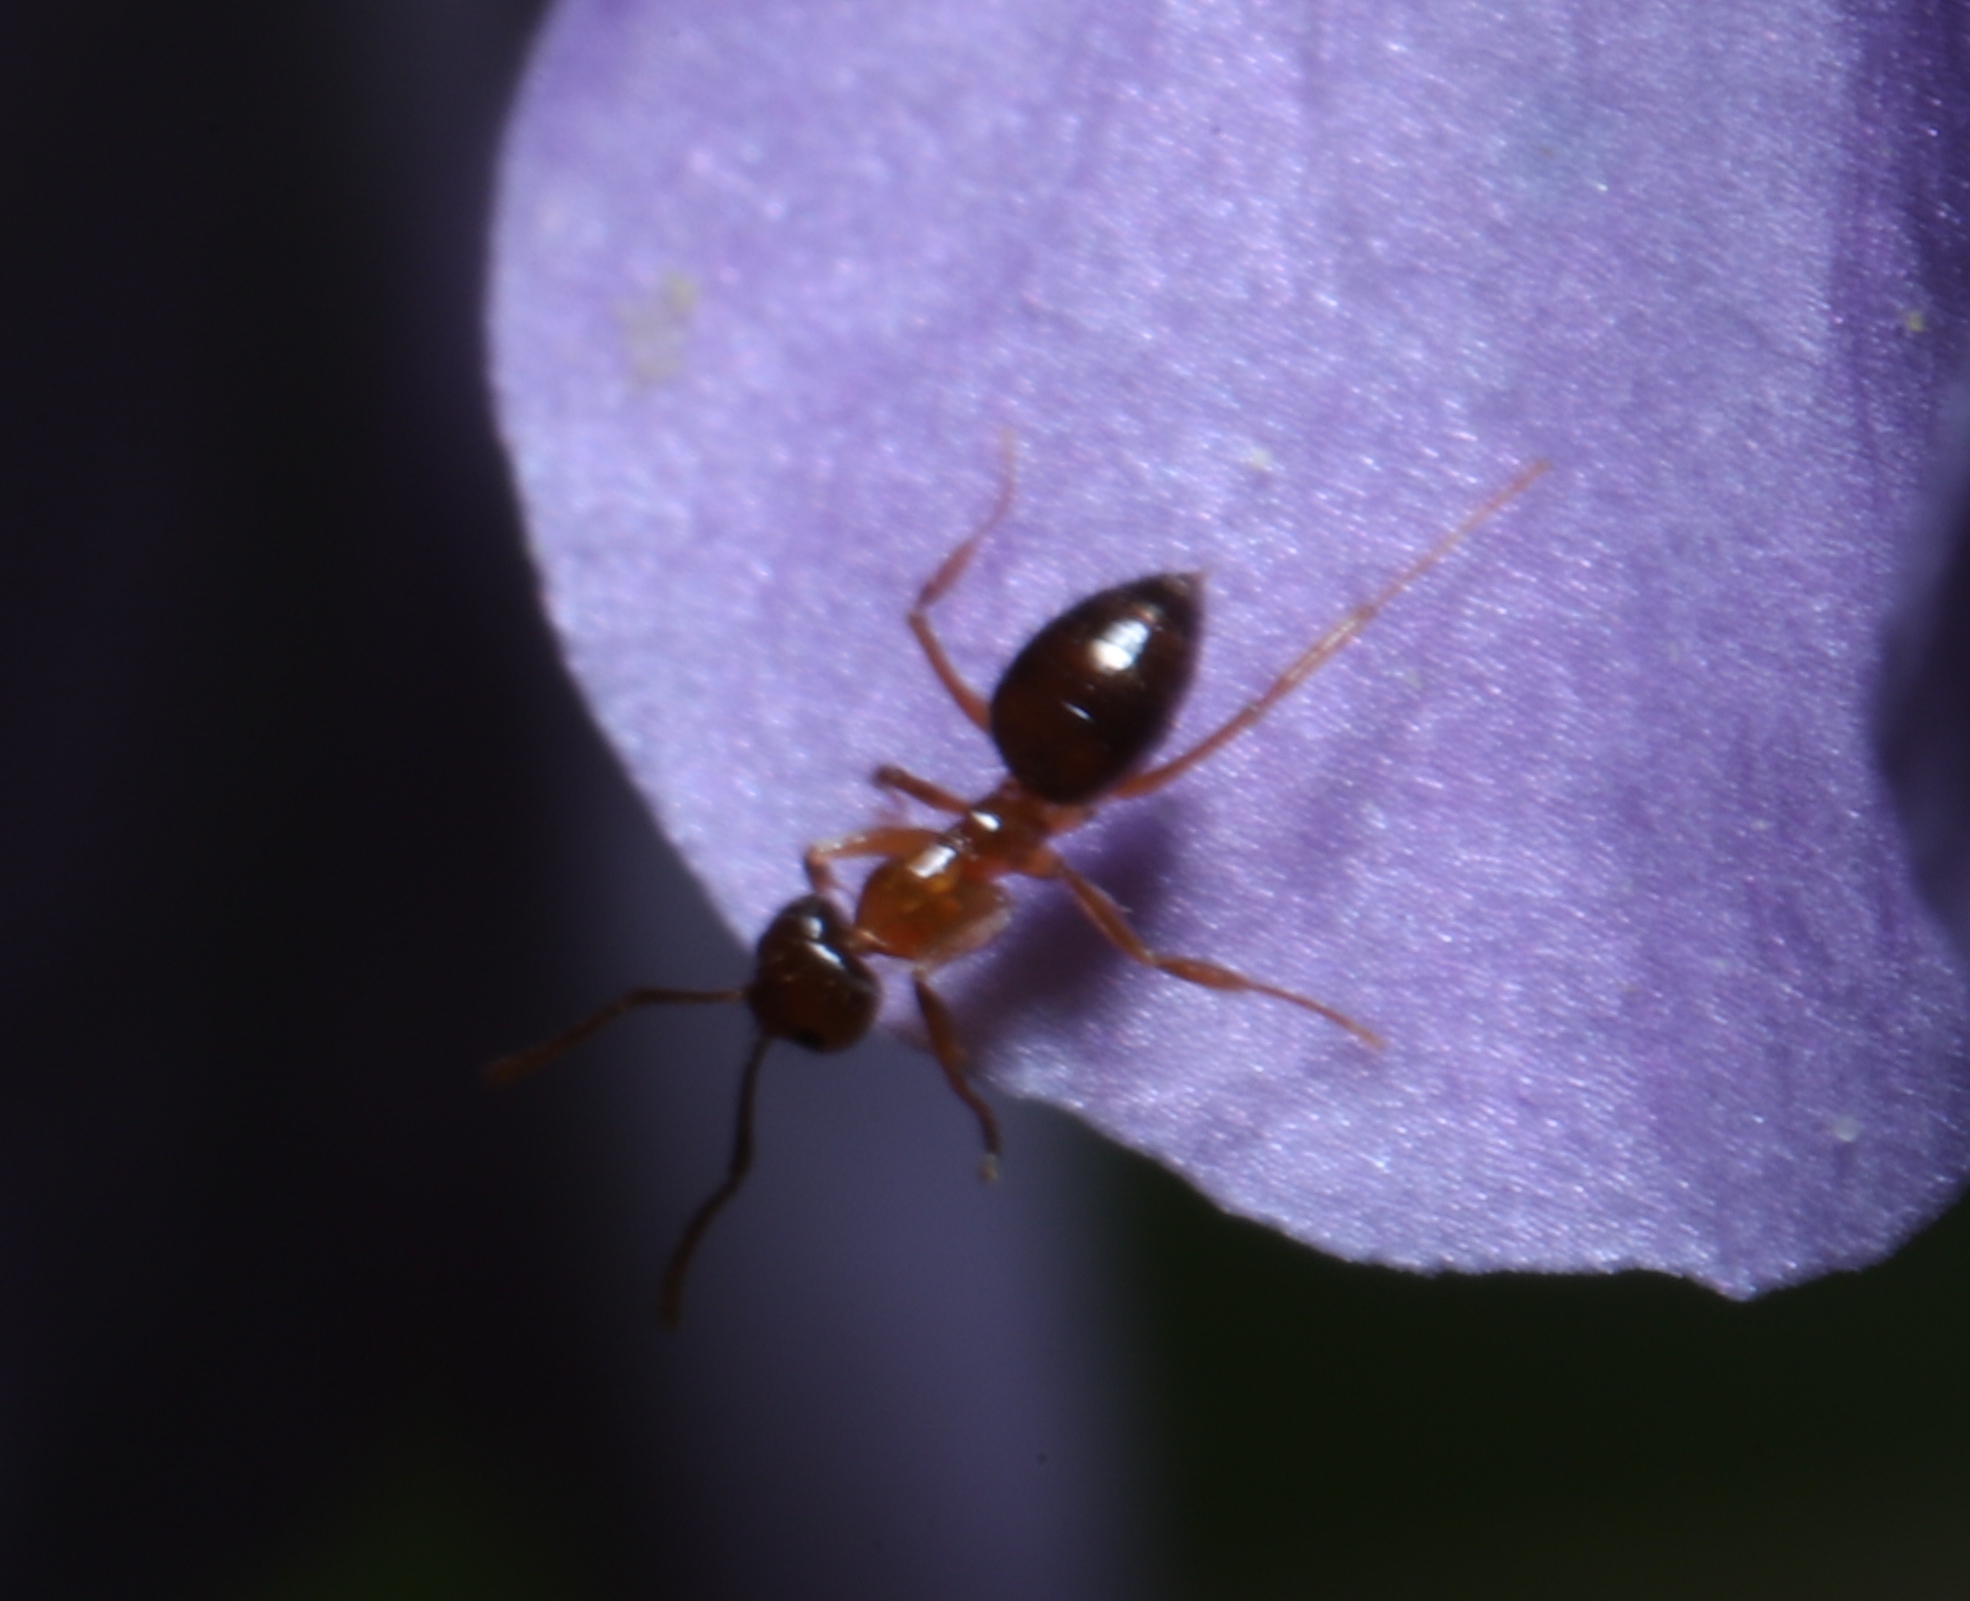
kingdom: Animalia
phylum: Arthropoda
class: Insecta
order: Hymenoptera
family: Formicidae
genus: Paratrechina
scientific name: Paratrechina flavipes
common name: Eastern asian formicine ant
